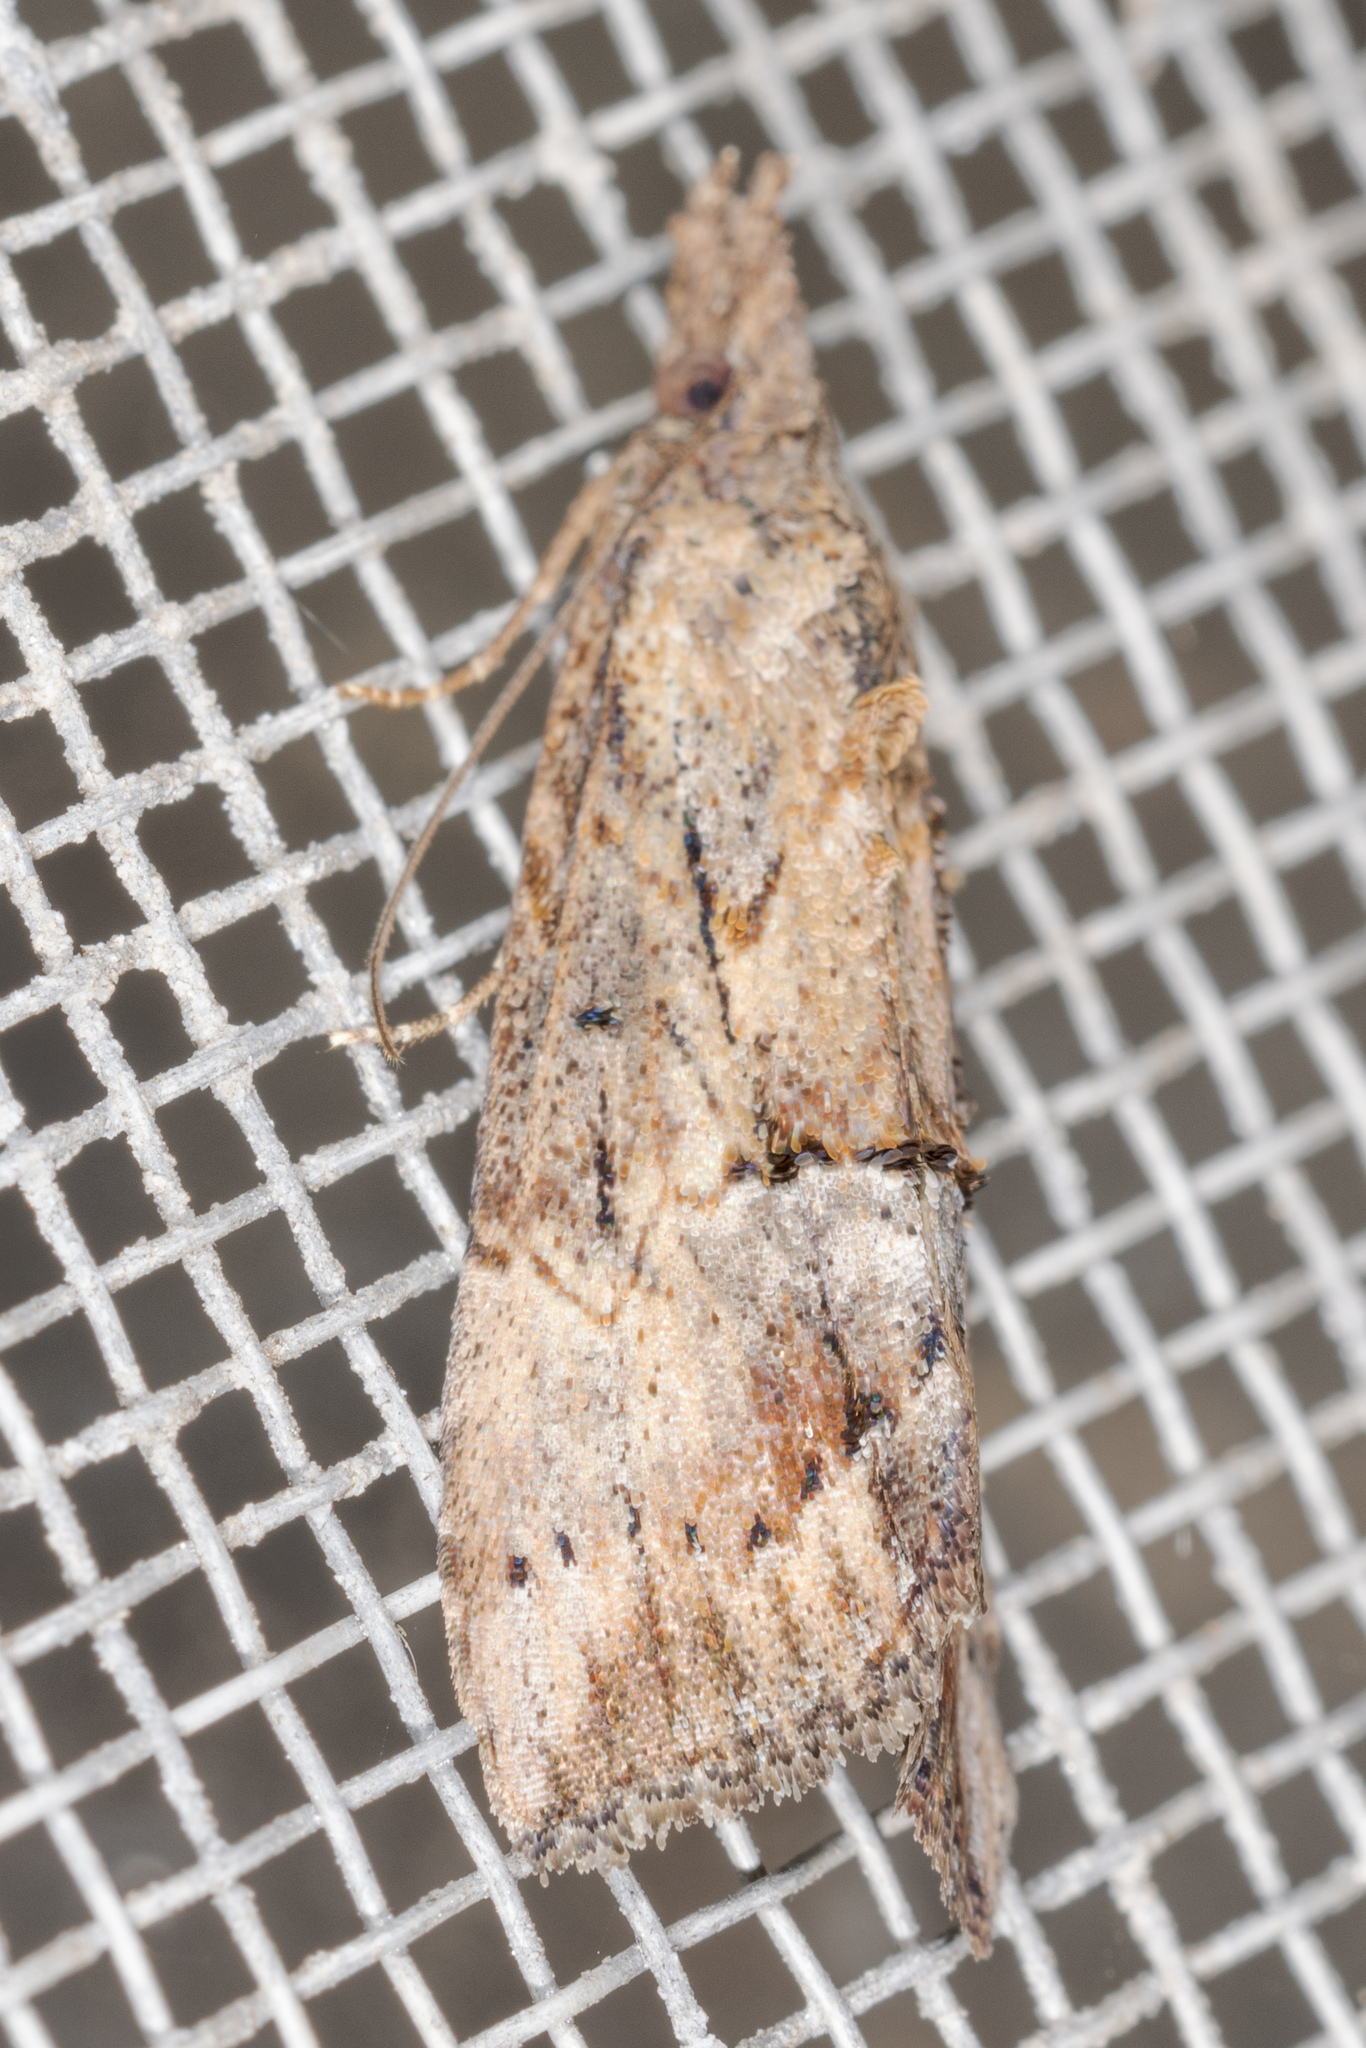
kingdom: Animalia
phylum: Arthropoda
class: Insecta
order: Lepidoptera
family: Erebidae
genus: Hypena
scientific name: Hypena scabra
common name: Green cloverworm
